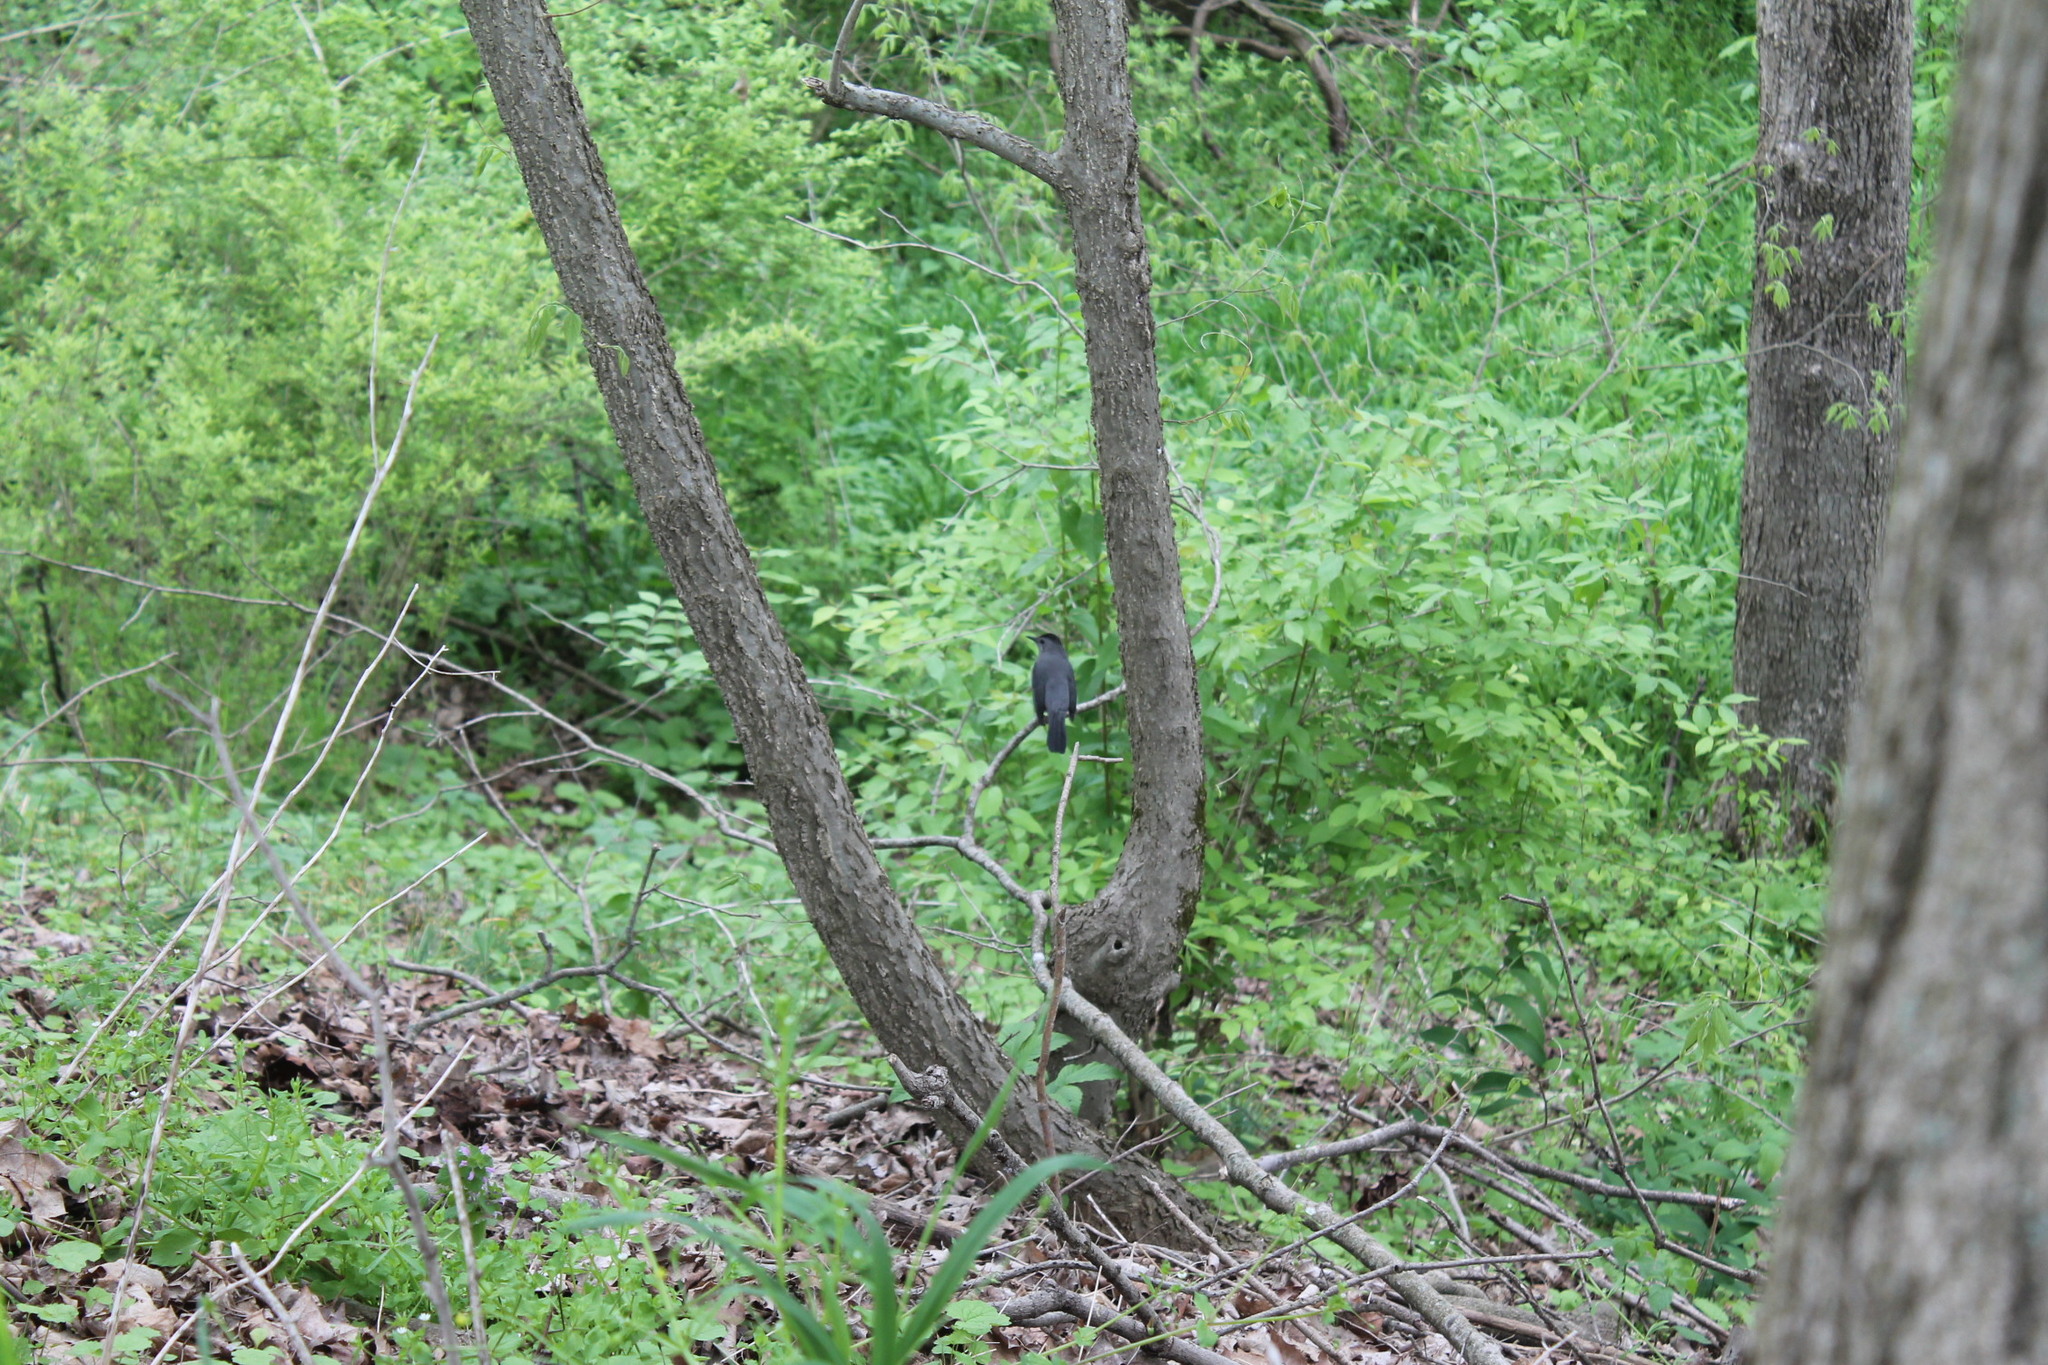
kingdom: Animalia
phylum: Chordata
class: Aves
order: Passeriformes
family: Mimidae
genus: Dumetella
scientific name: Dumetella carolinensis
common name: Gray catbird
